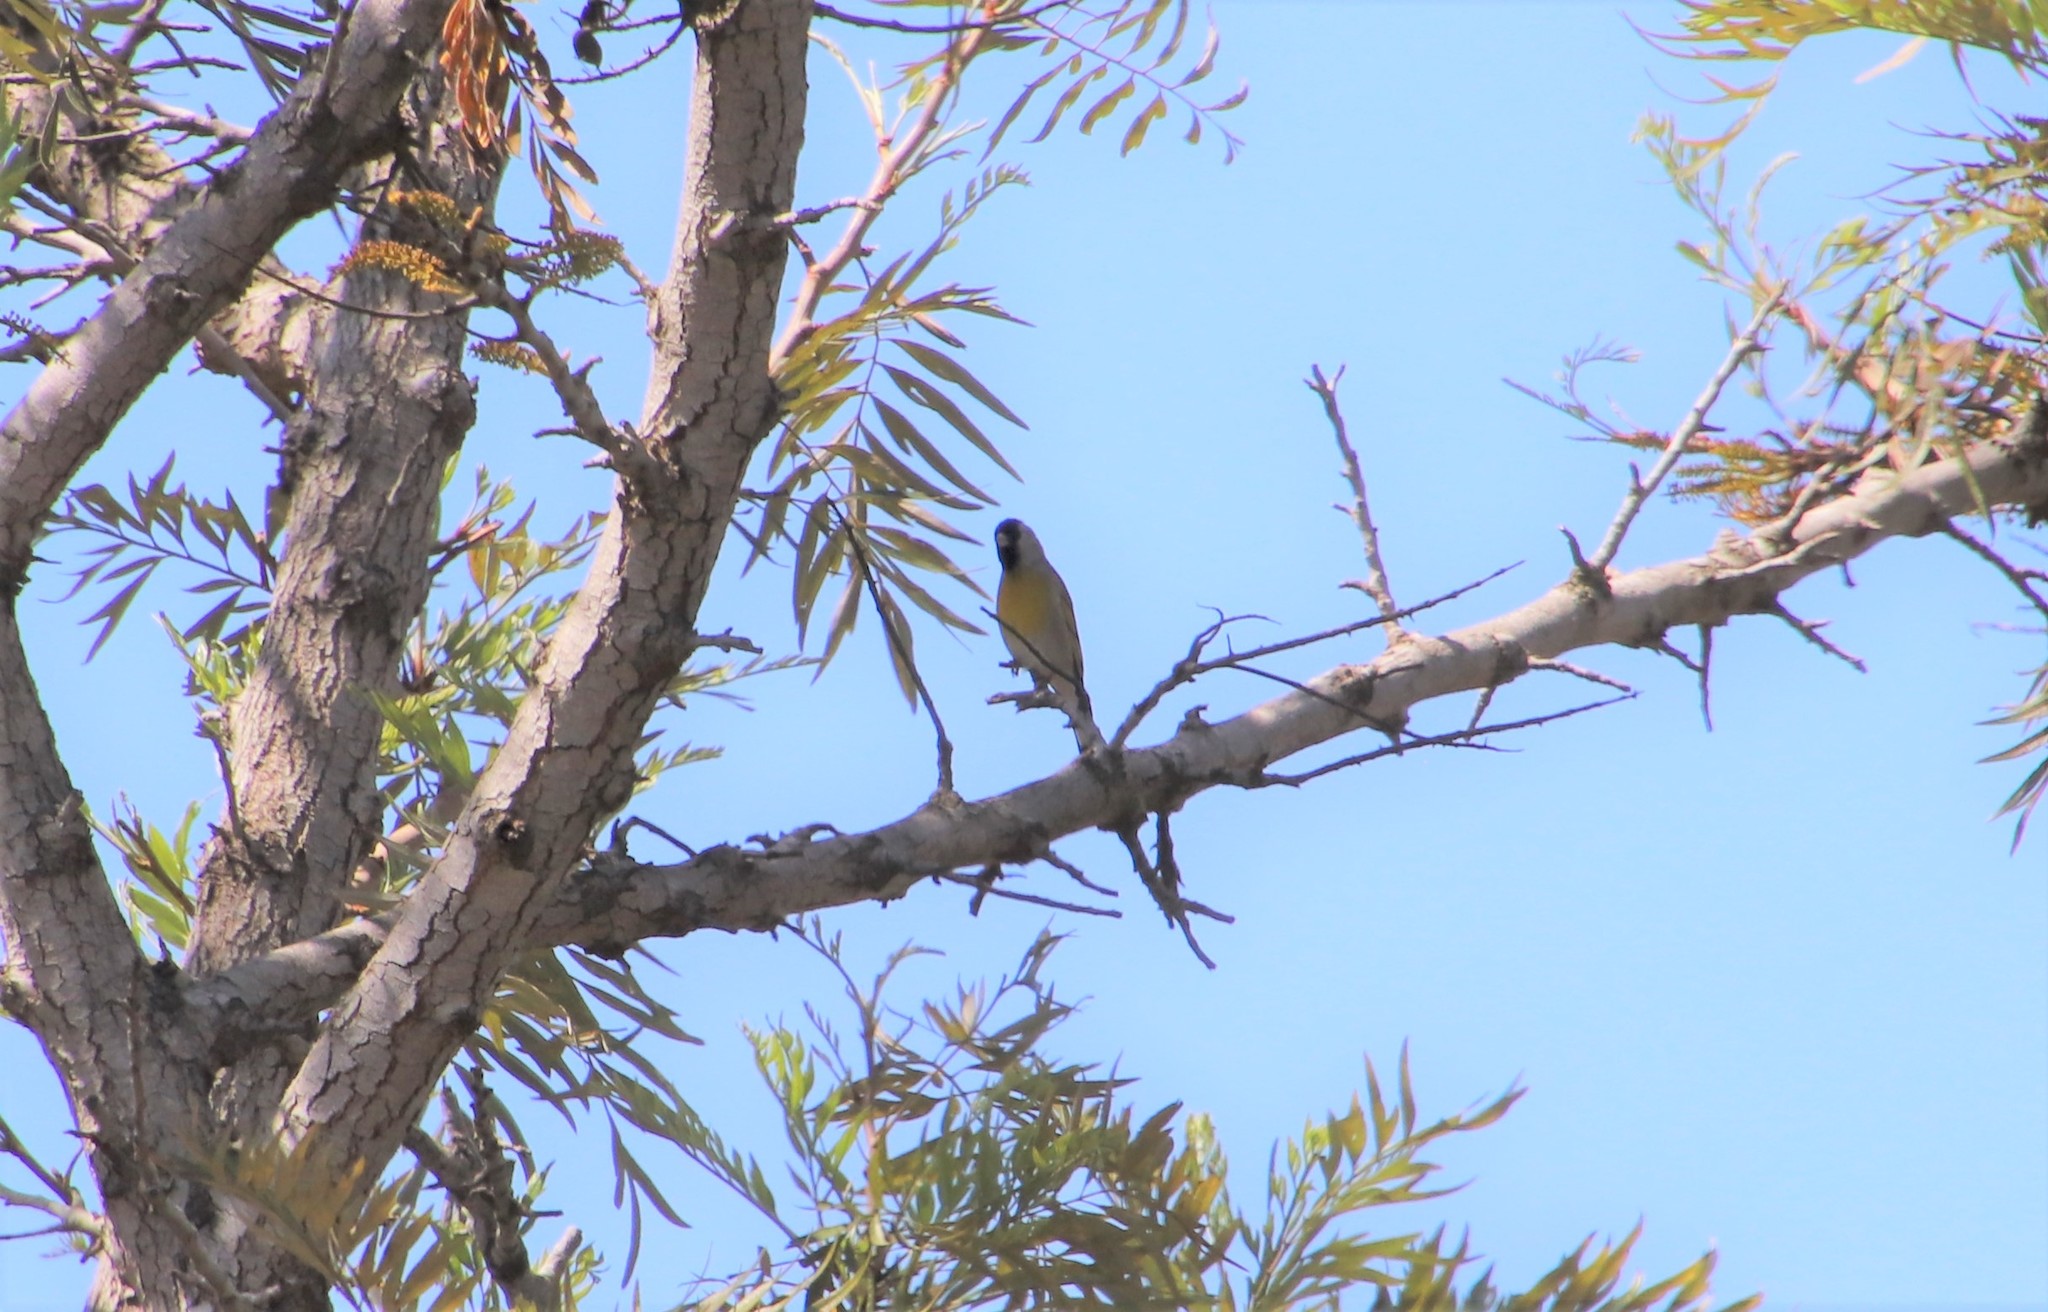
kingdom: Animalia
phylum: Chordata
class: Aves
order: Passeriformes
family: Fringillidae
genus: Spinus
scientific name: Spinus lawrencei
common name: Lawrence's goldfinch
